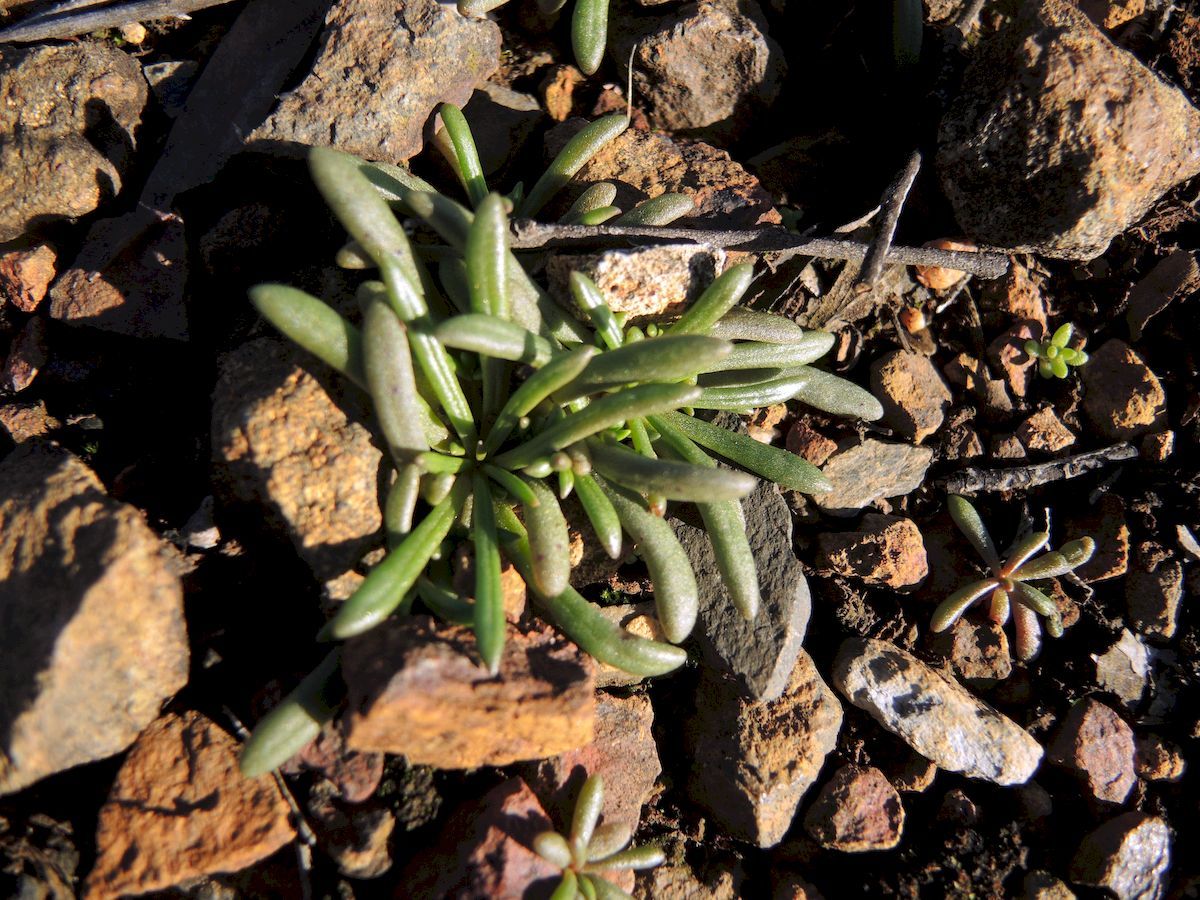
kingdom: Plantae
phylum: Tracheophyta
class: Magnoliopsida
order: Caryophyllales
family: Montiaceae
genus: Calandrinia
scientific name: Calandrinia
